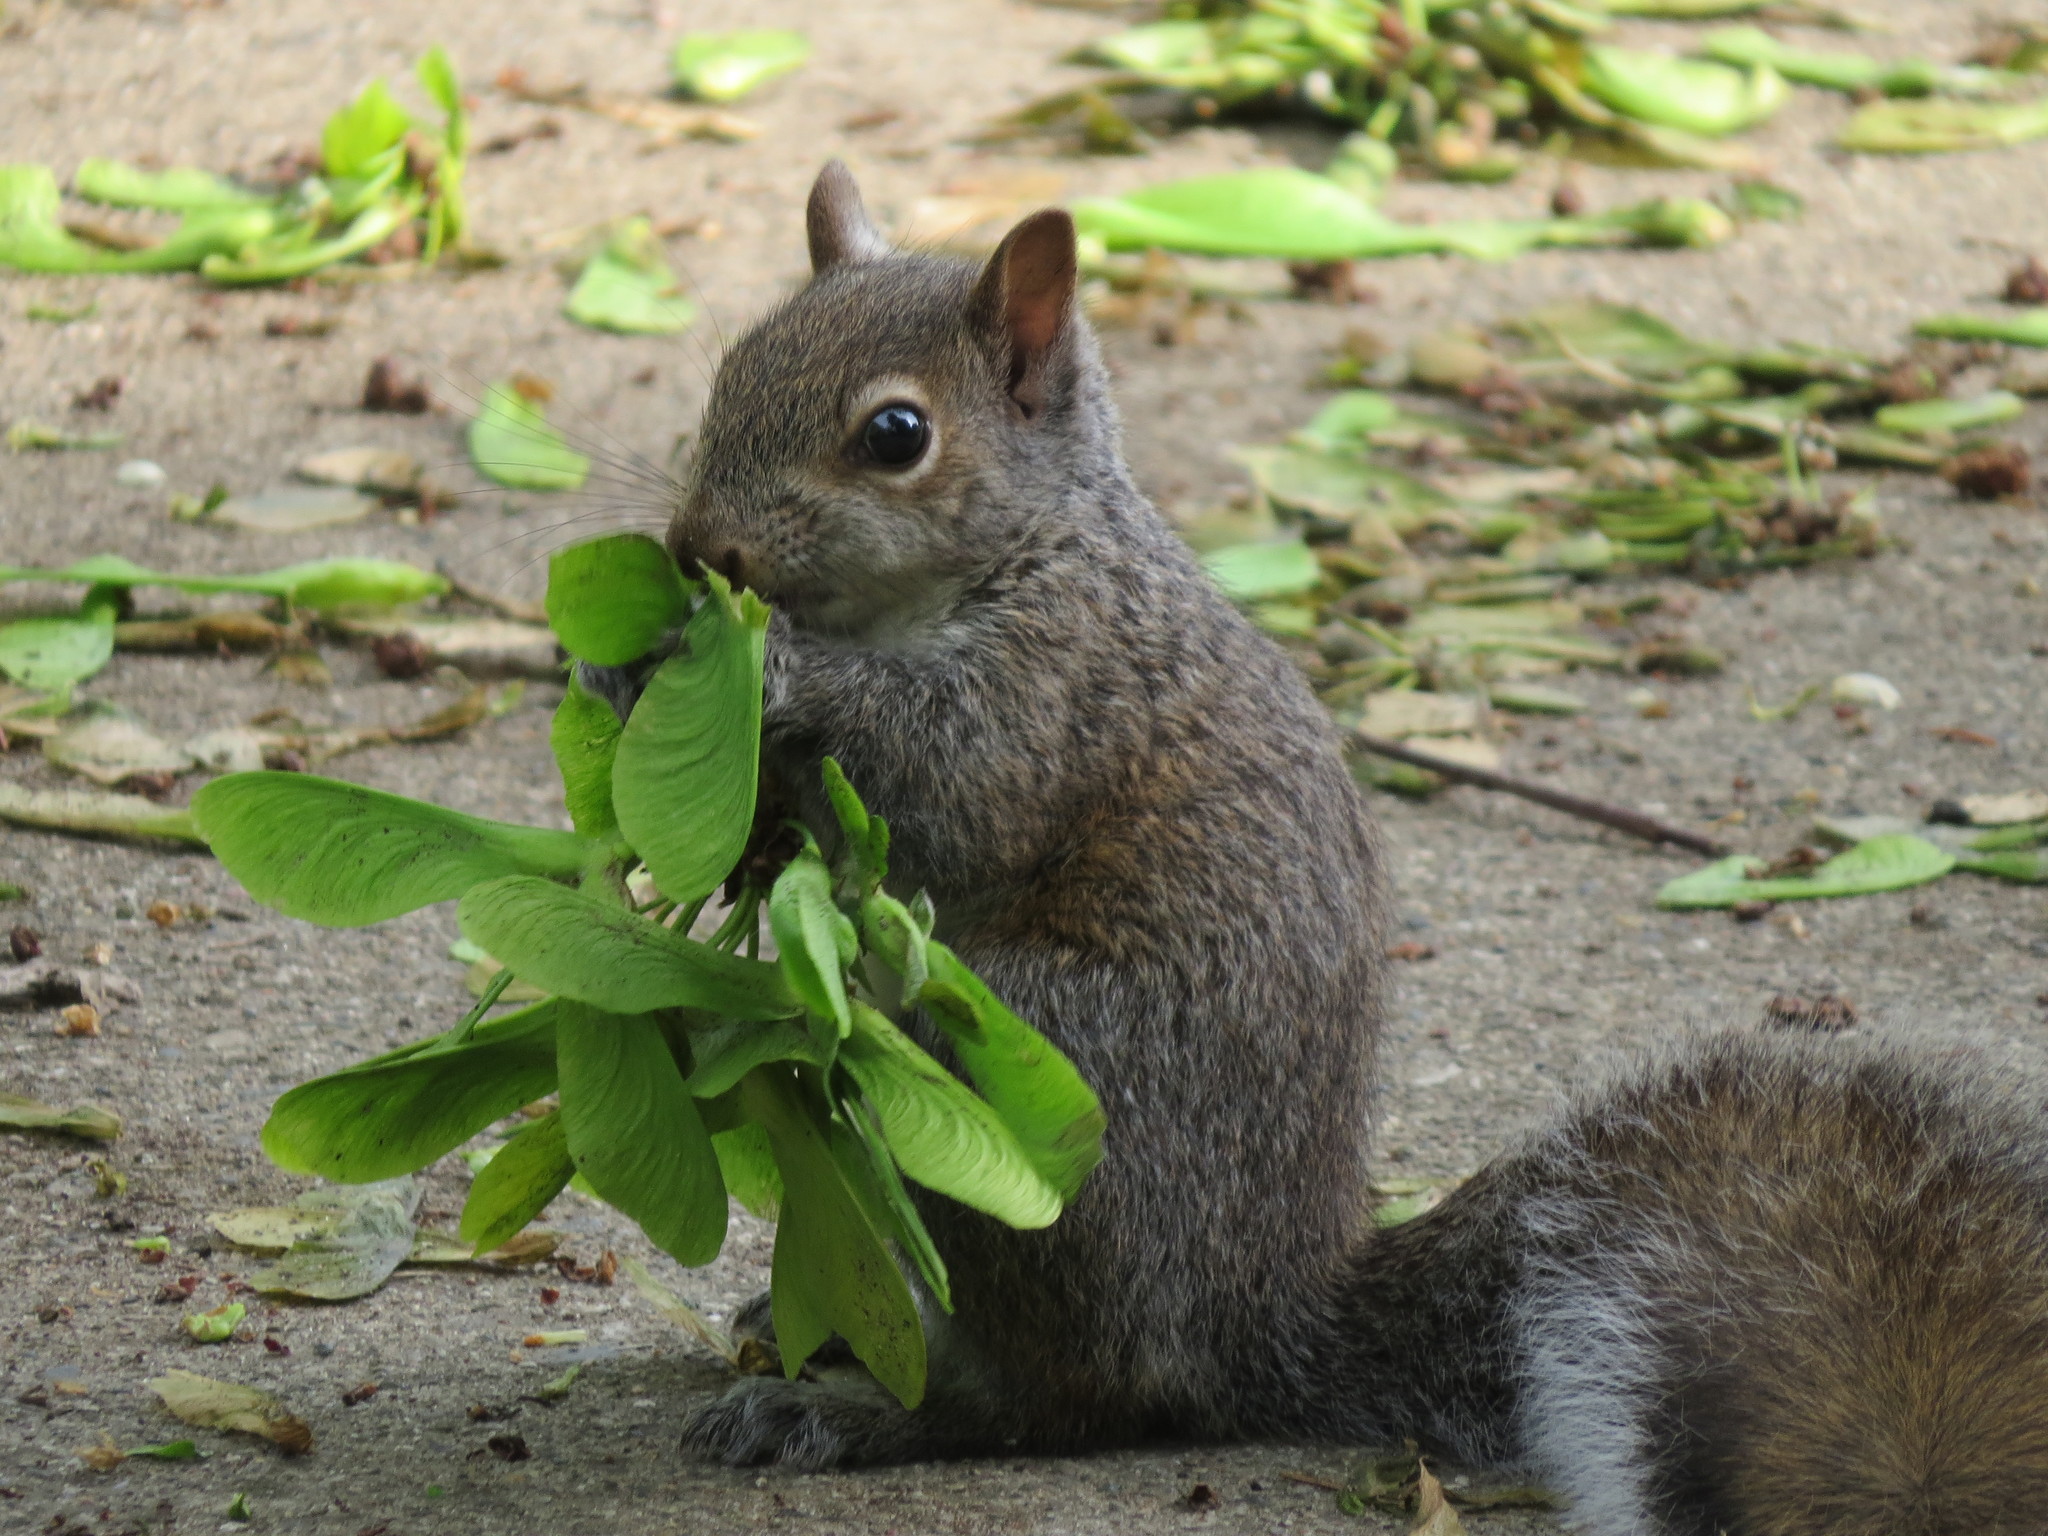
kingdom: Animalia
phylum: Chordata
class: Mammalia
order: Rodentia
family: Sciuridae
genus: Sciurus
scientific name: Sciurus carolinensis
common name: Eastern gray squirrel
